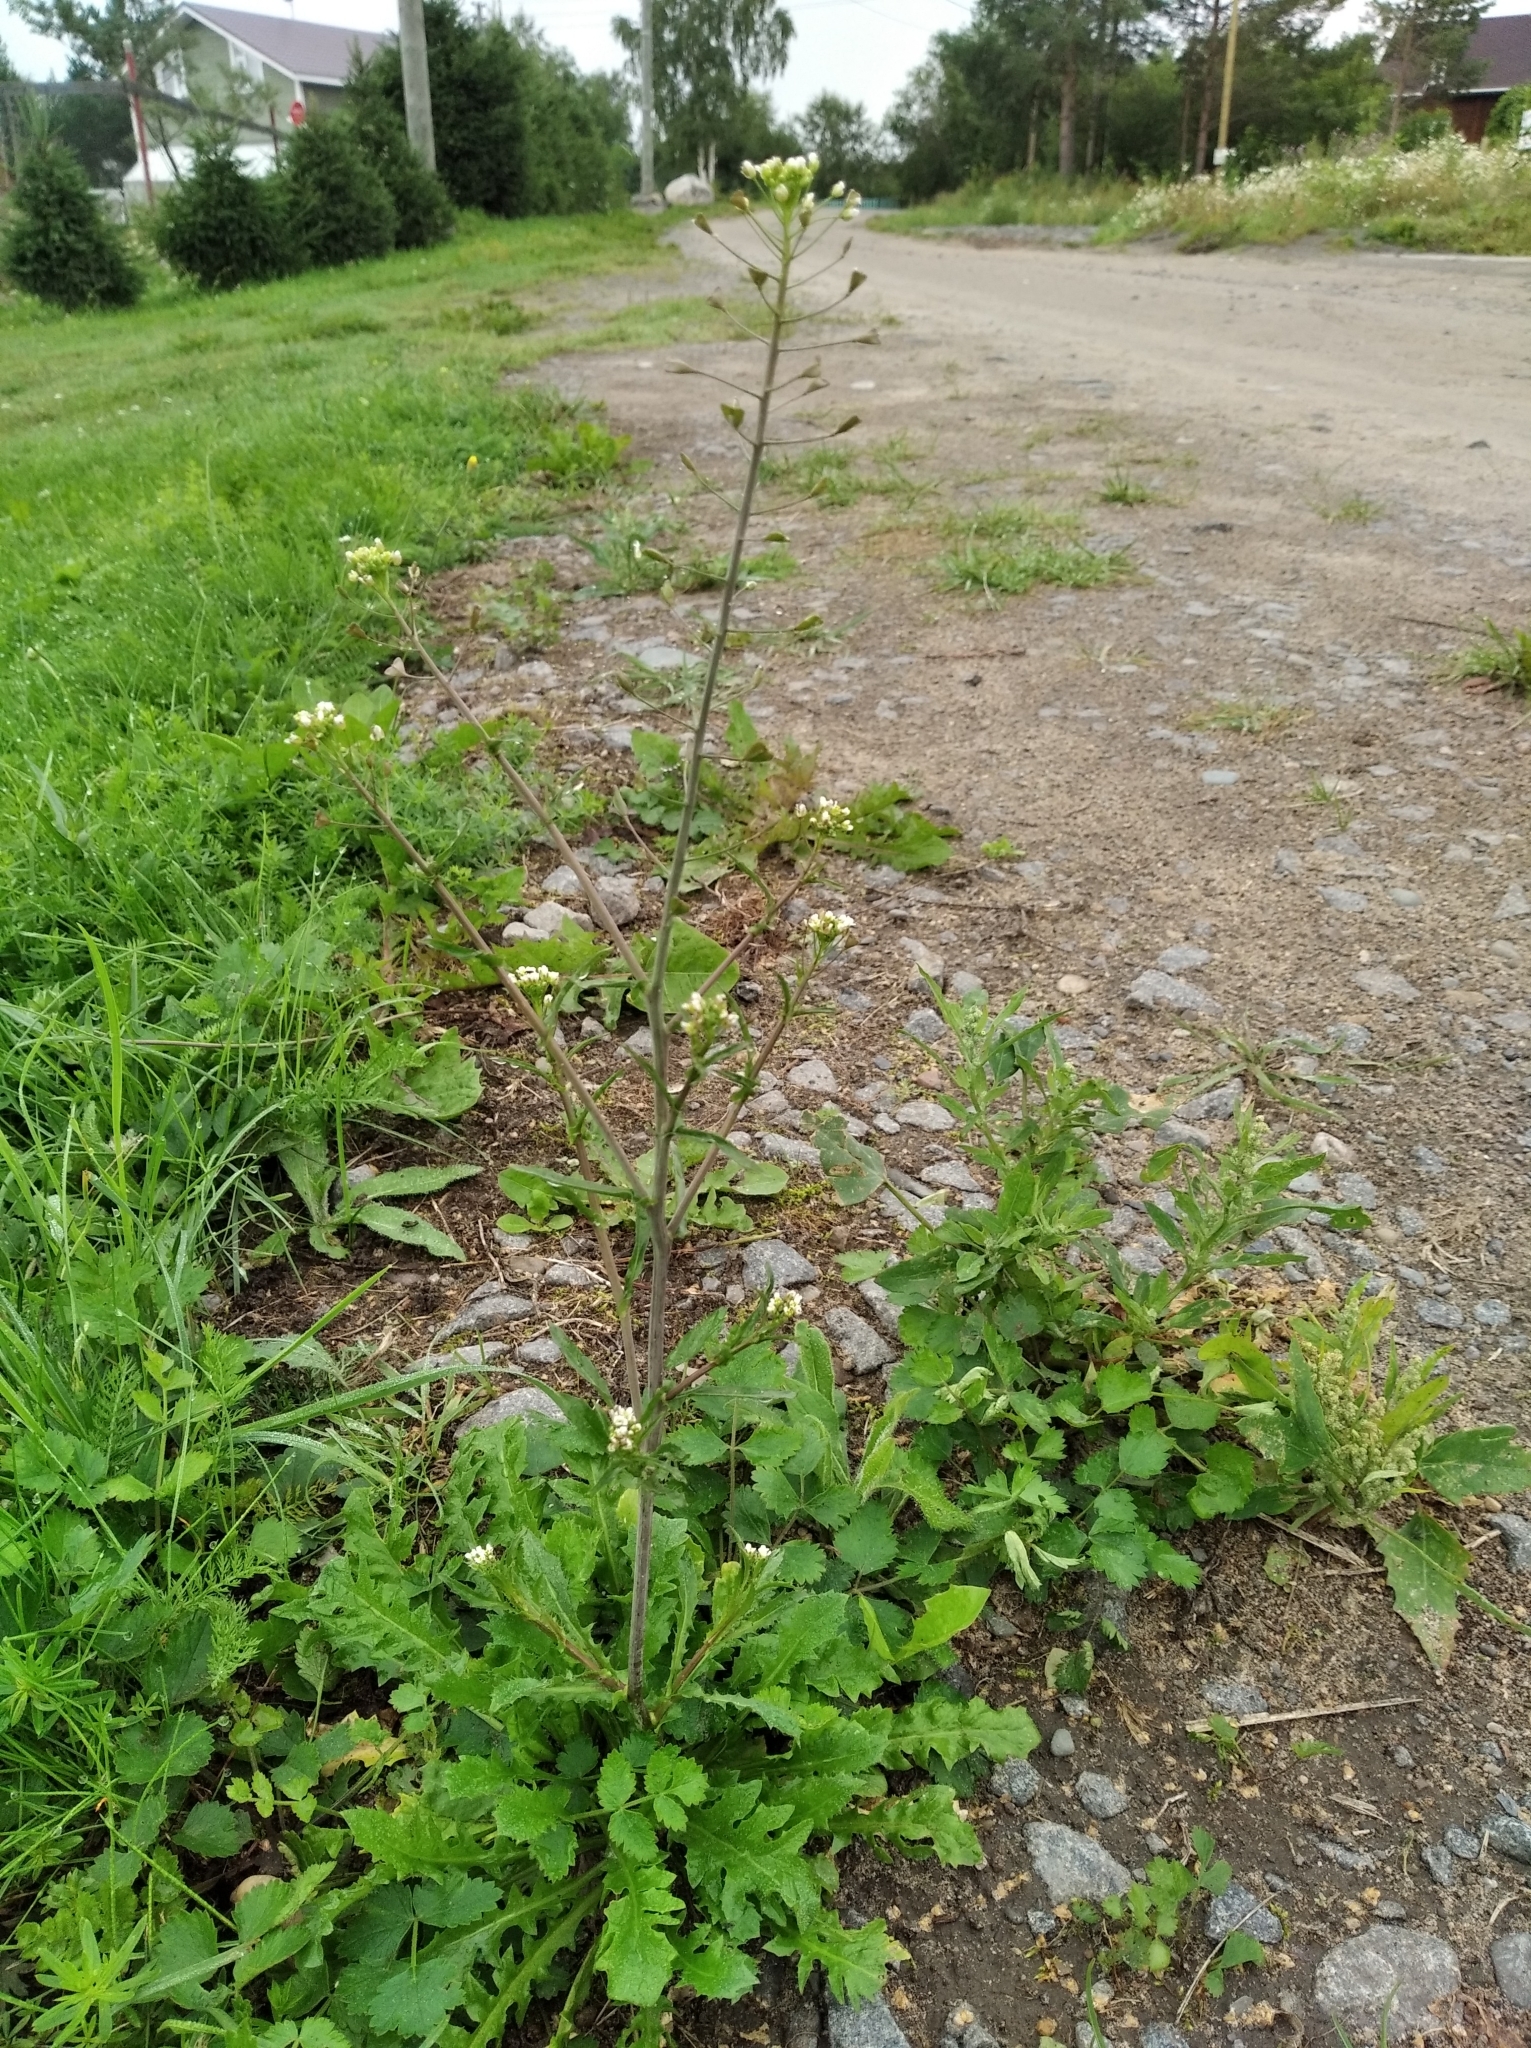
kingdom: Plantae
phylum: Tracheophyta
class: Magnoliopsida
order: Brassicales
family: Brassicaceae
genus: Capsella
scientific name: Capsella bursa-pastoris
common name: Shepherd's purse
